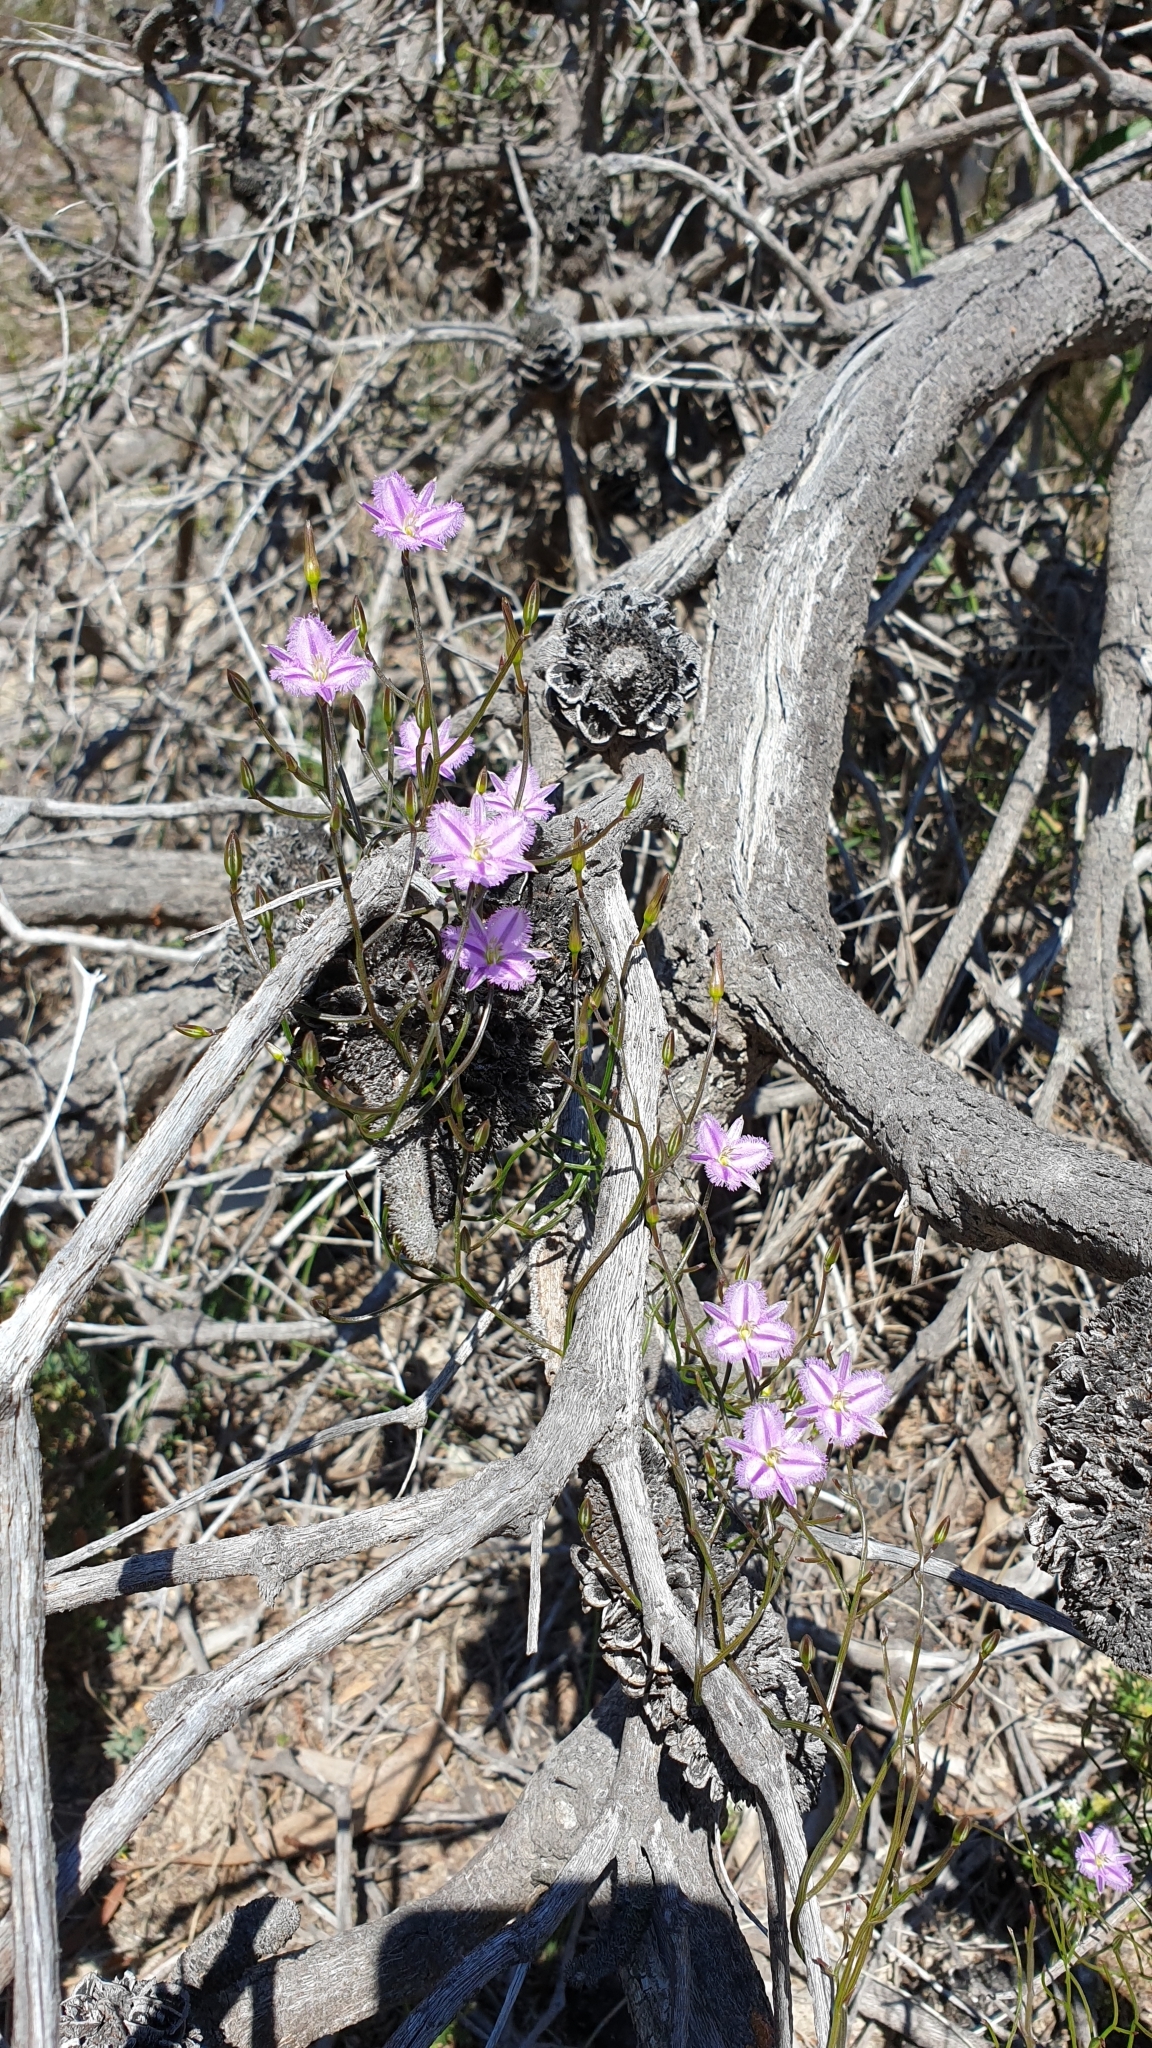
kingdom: Plantae
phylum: Tracheophyta
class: Liliopsida
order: Asparagales
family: Asparagaceae
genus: Thysanotus
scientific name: Thysanotus patersonii
